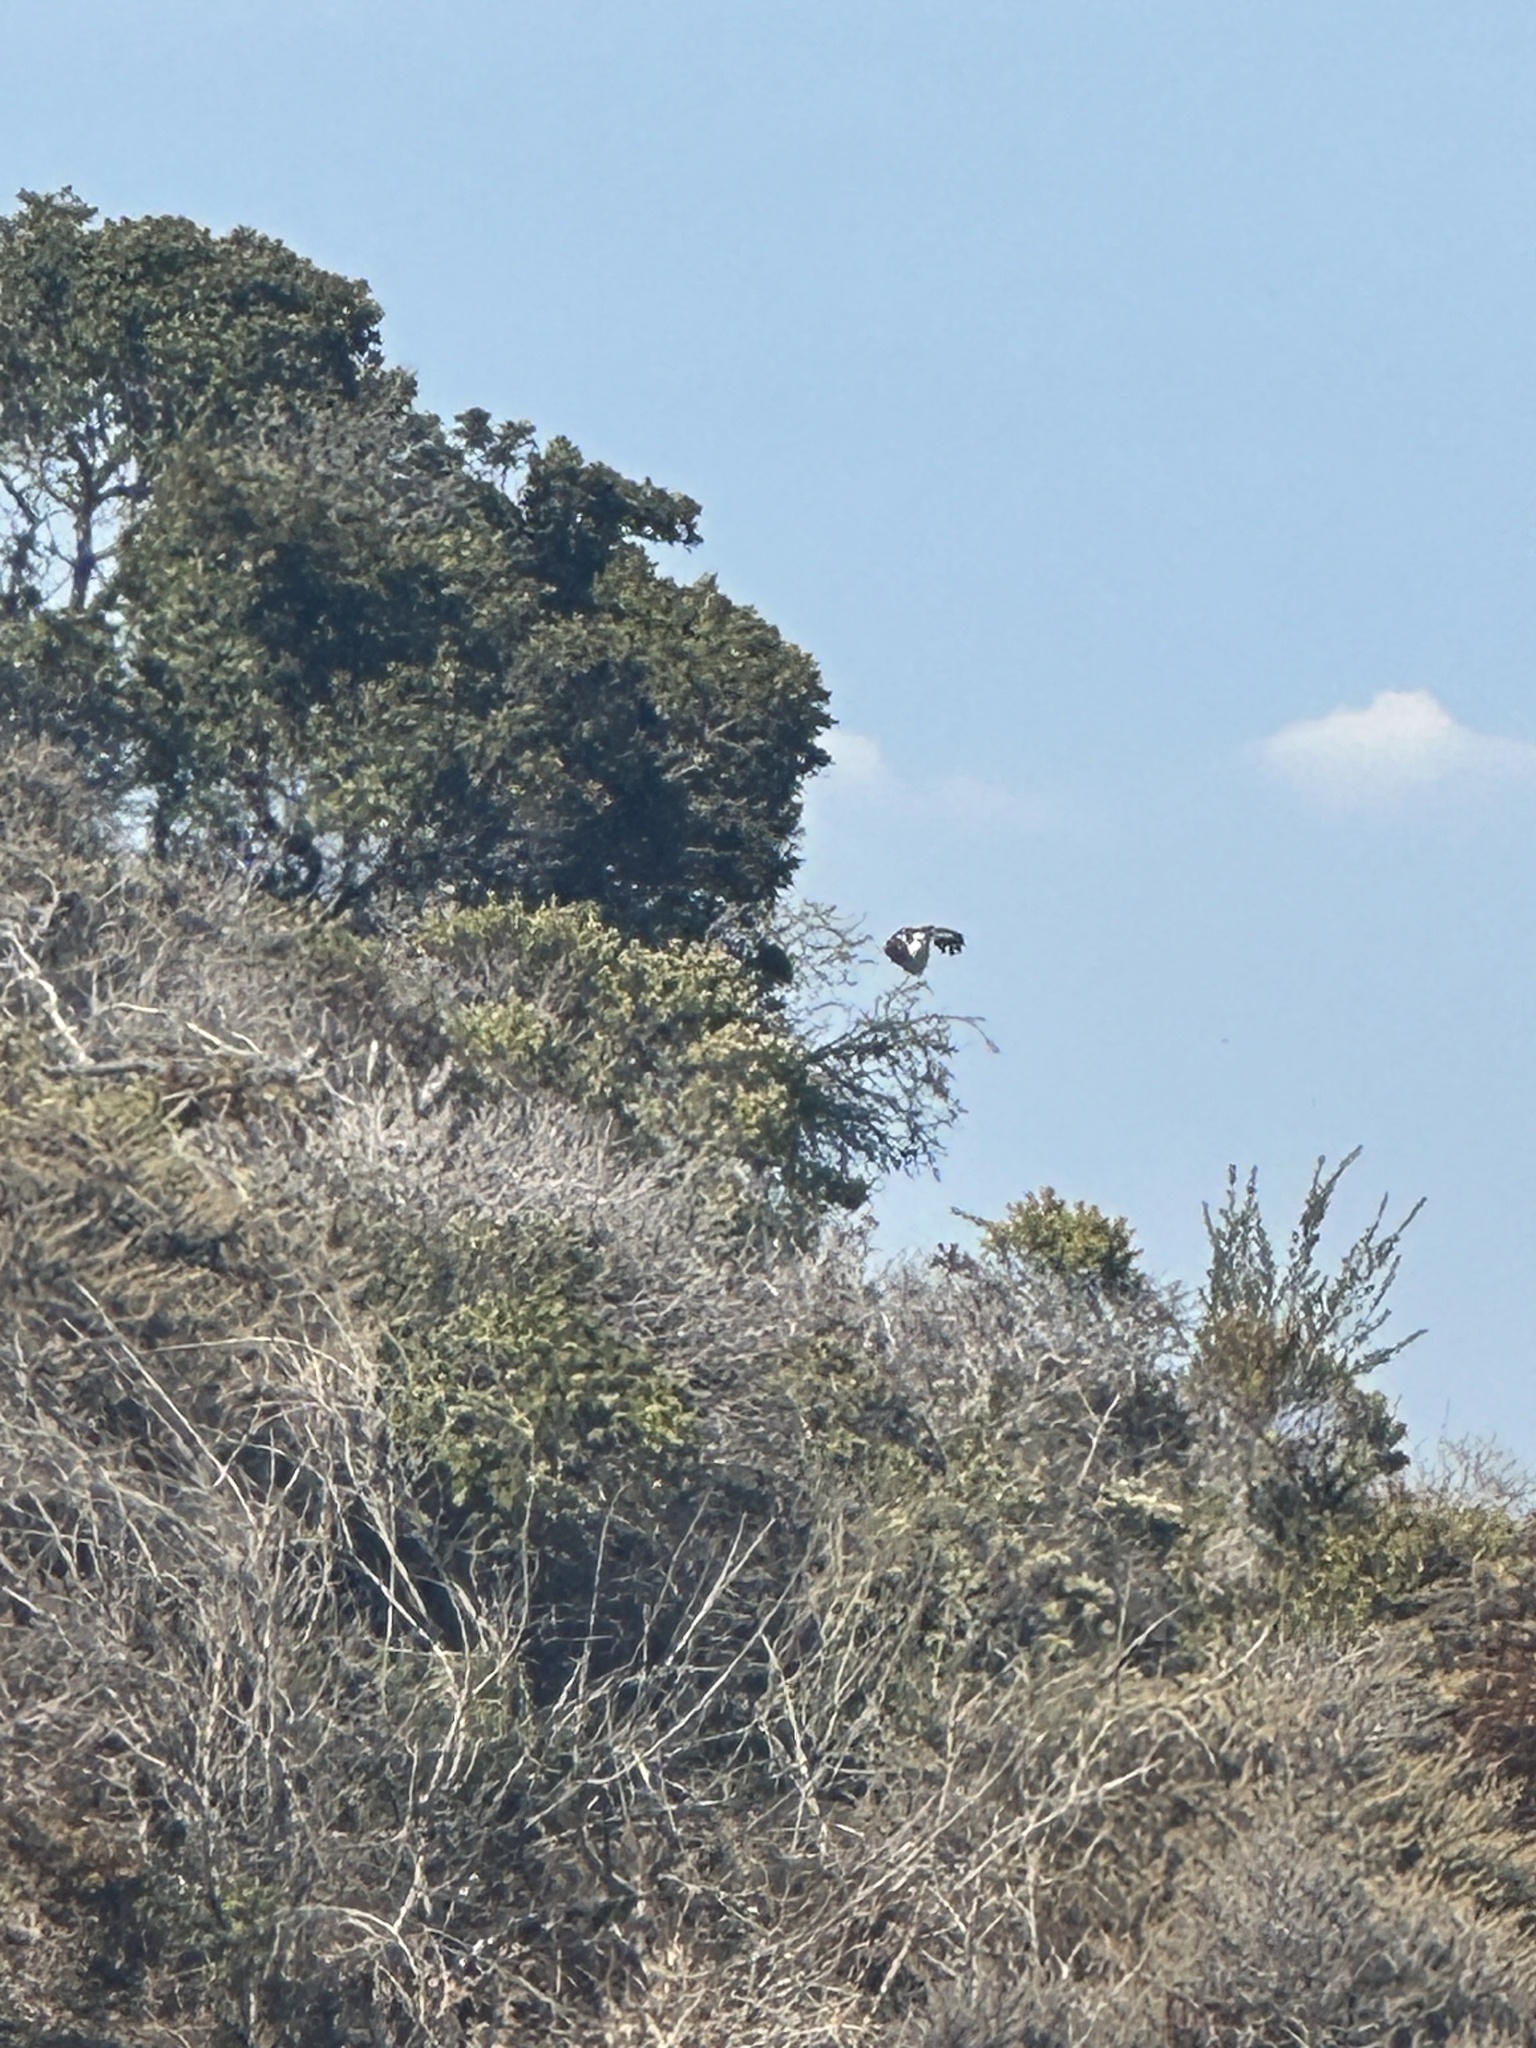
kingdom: Animalia
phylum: Chordata
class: Aves
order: Accipitriformes
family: Pandionidae
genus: Pandion
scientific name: Pandion haliaetus
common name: Osprey
